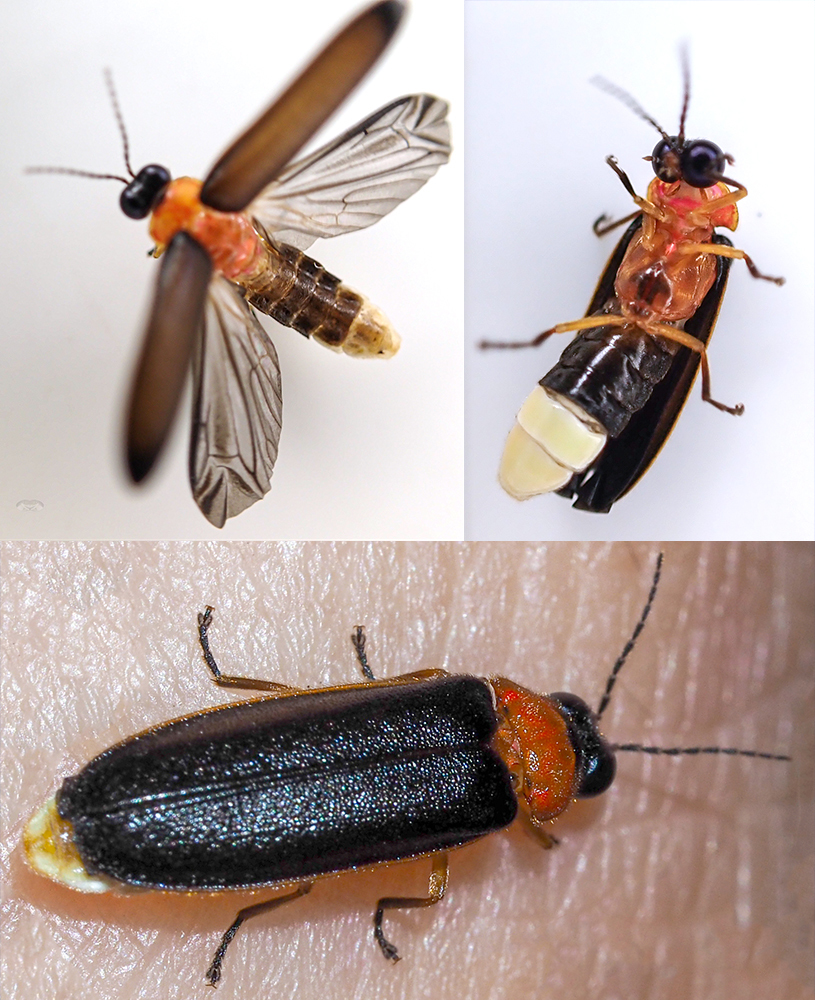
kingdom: Animalia
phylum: Arthropoda
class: Insecta
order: Coleoptera
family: Lampyridae
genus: Luciola
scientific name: Luciola lusitanica
